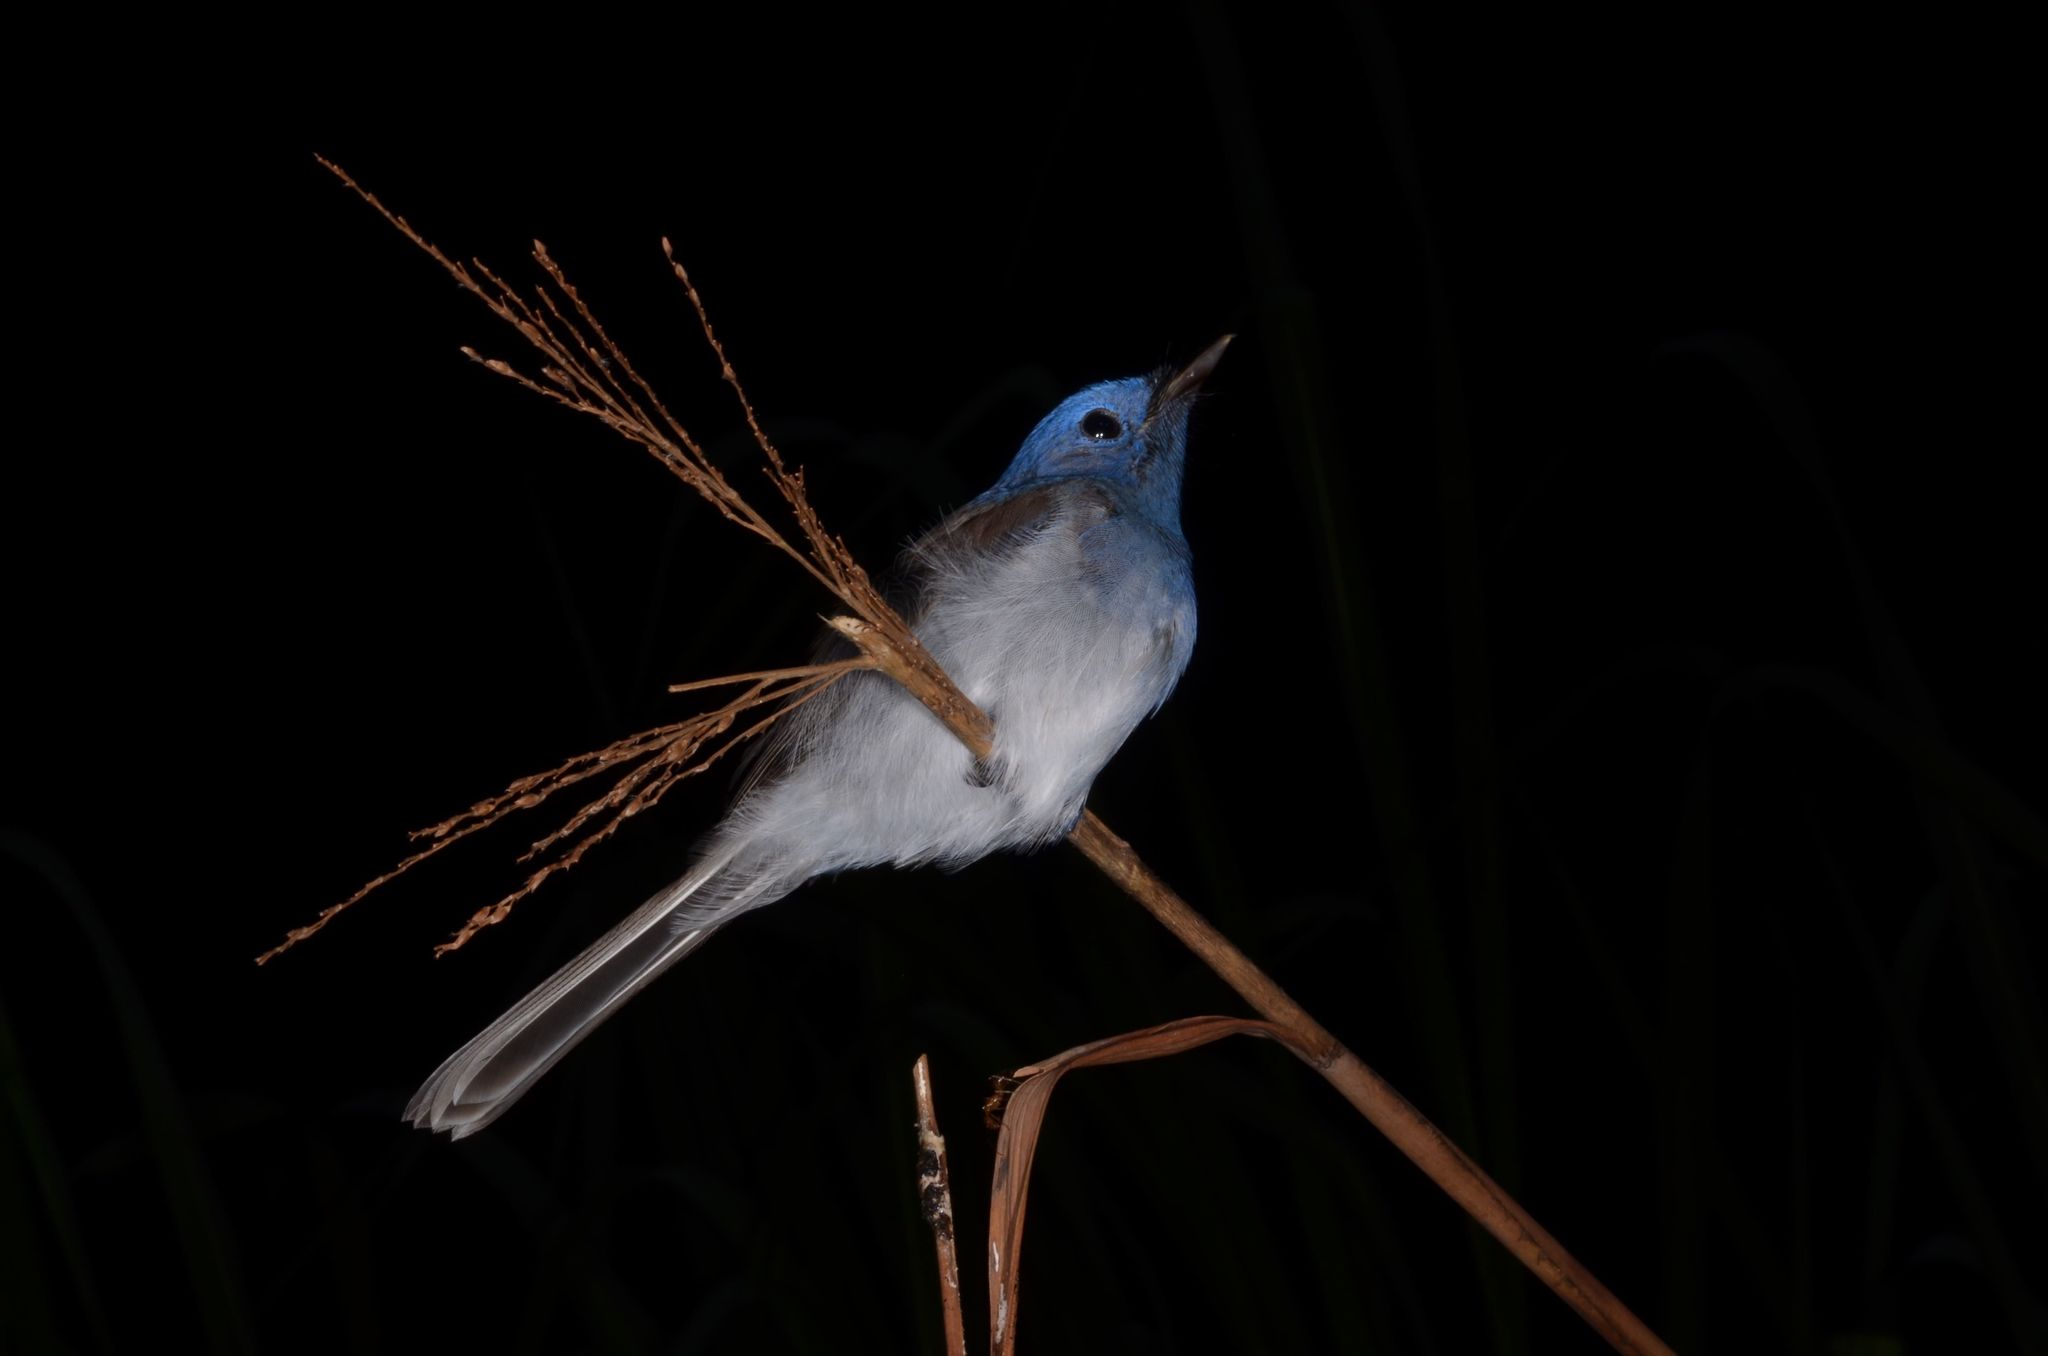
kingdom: Animalia
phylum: Chordata
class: Aves
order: Passeriformes
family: Monarchidae
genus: Hypothymis
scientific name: Hypothymis azurea
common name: Black-naped monarch
